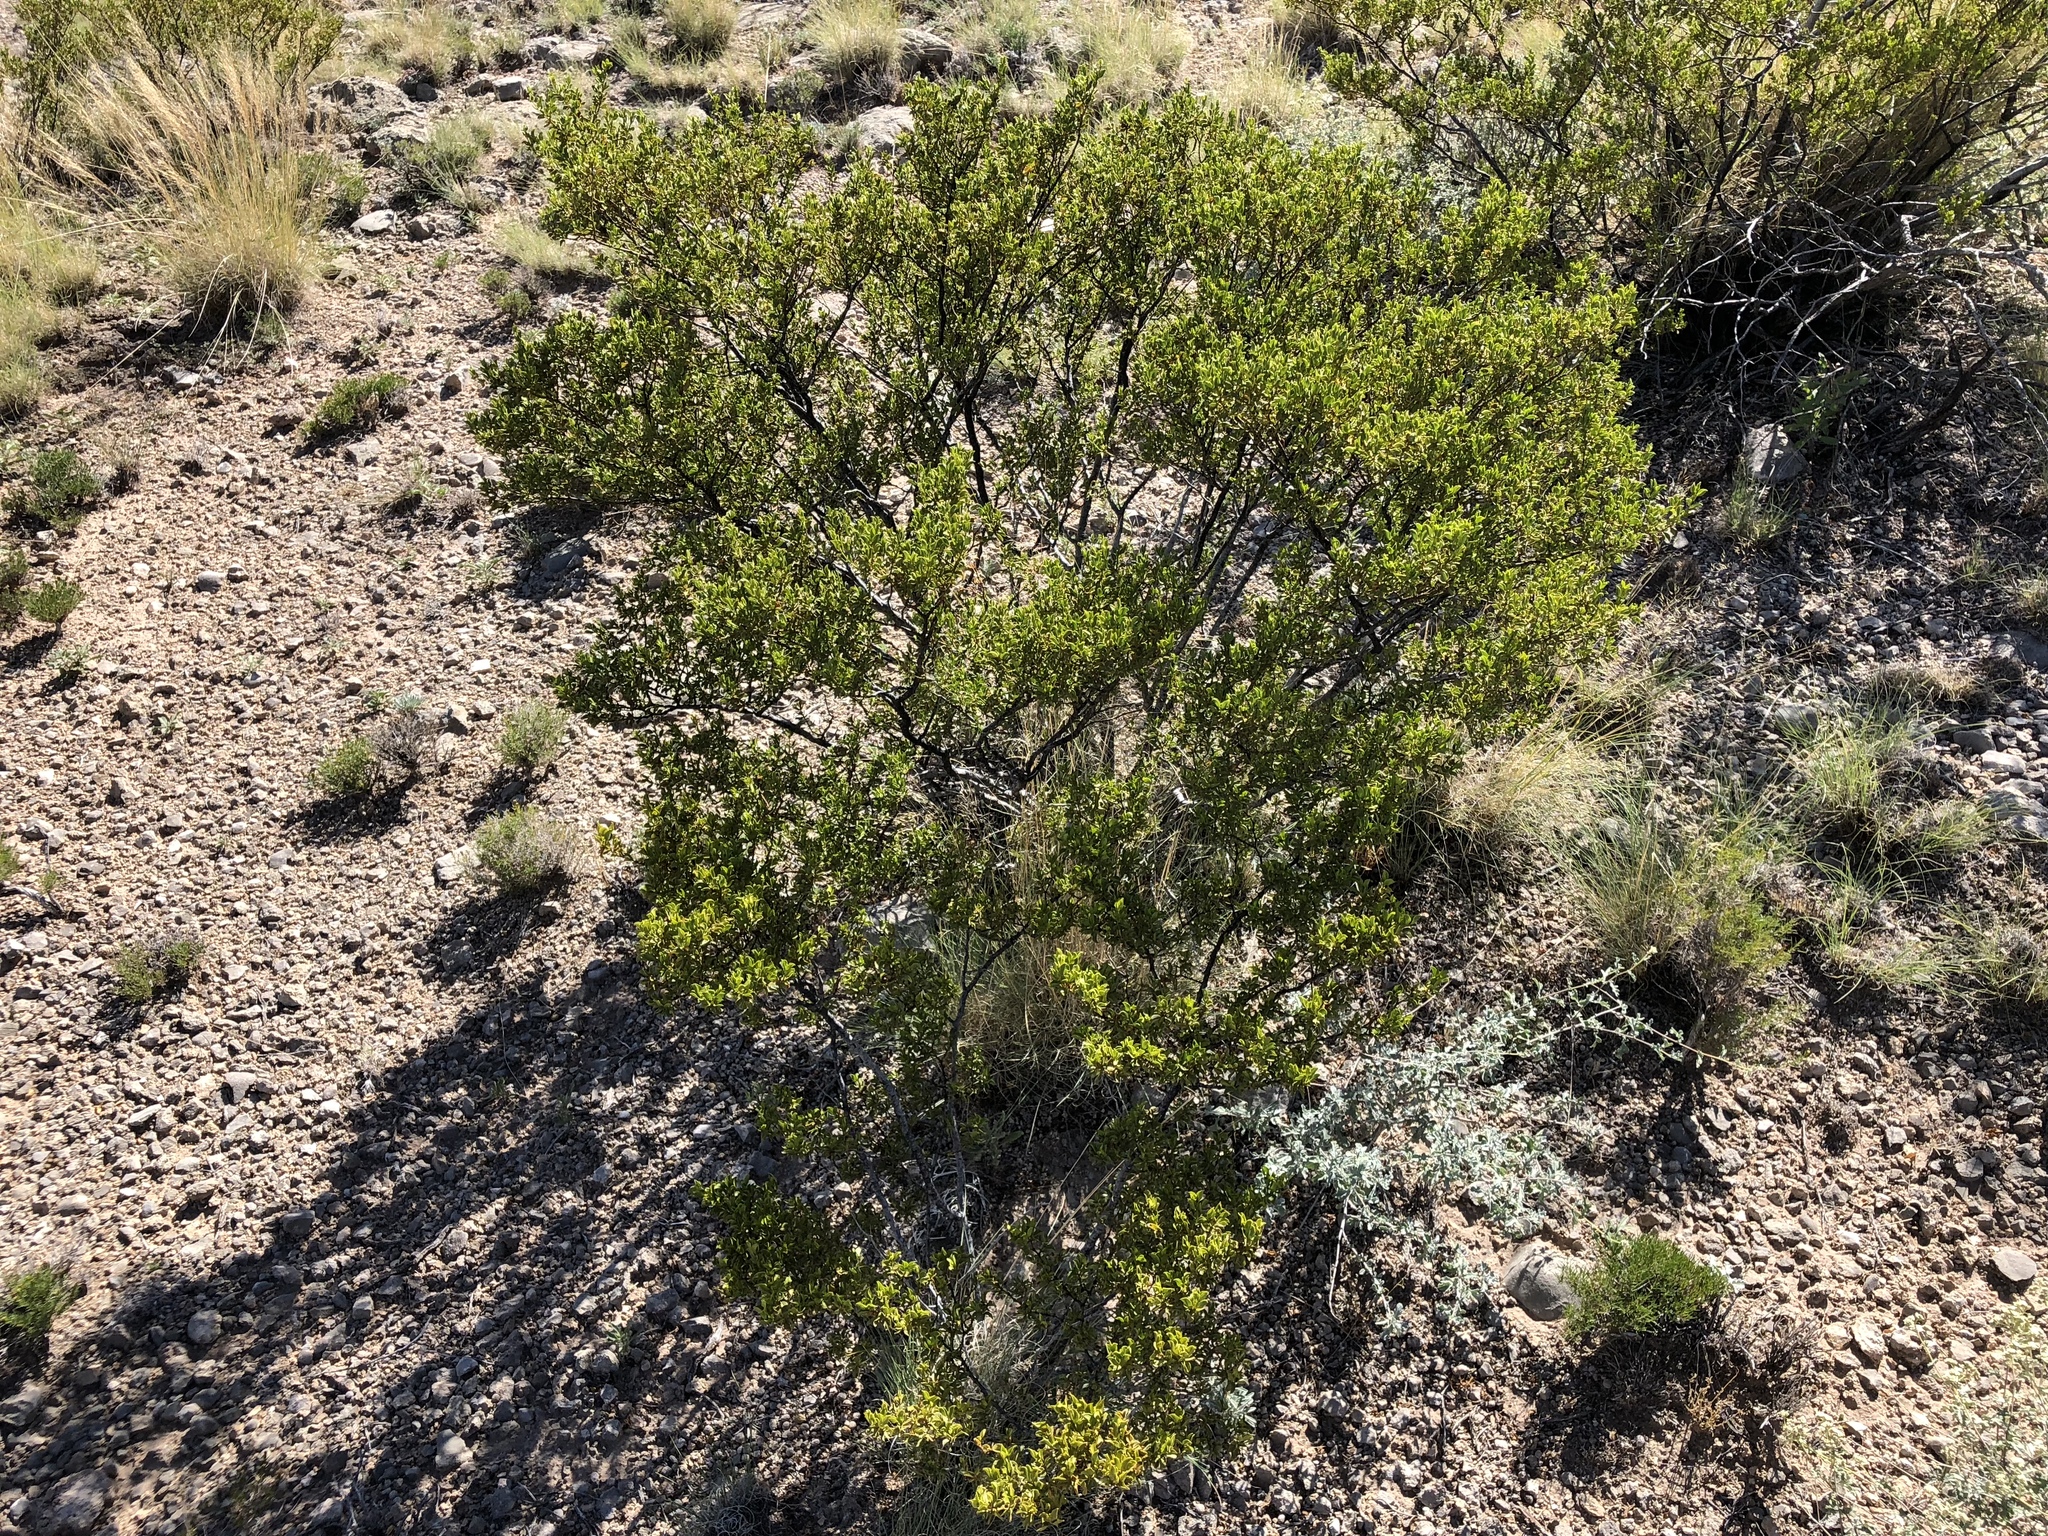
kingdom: Plantae
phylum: Tracheophyta
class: Magnoliopsida
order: Zygophyllales
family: Zygophyllaceae
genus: Larrea
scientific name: Larrea tridentata
